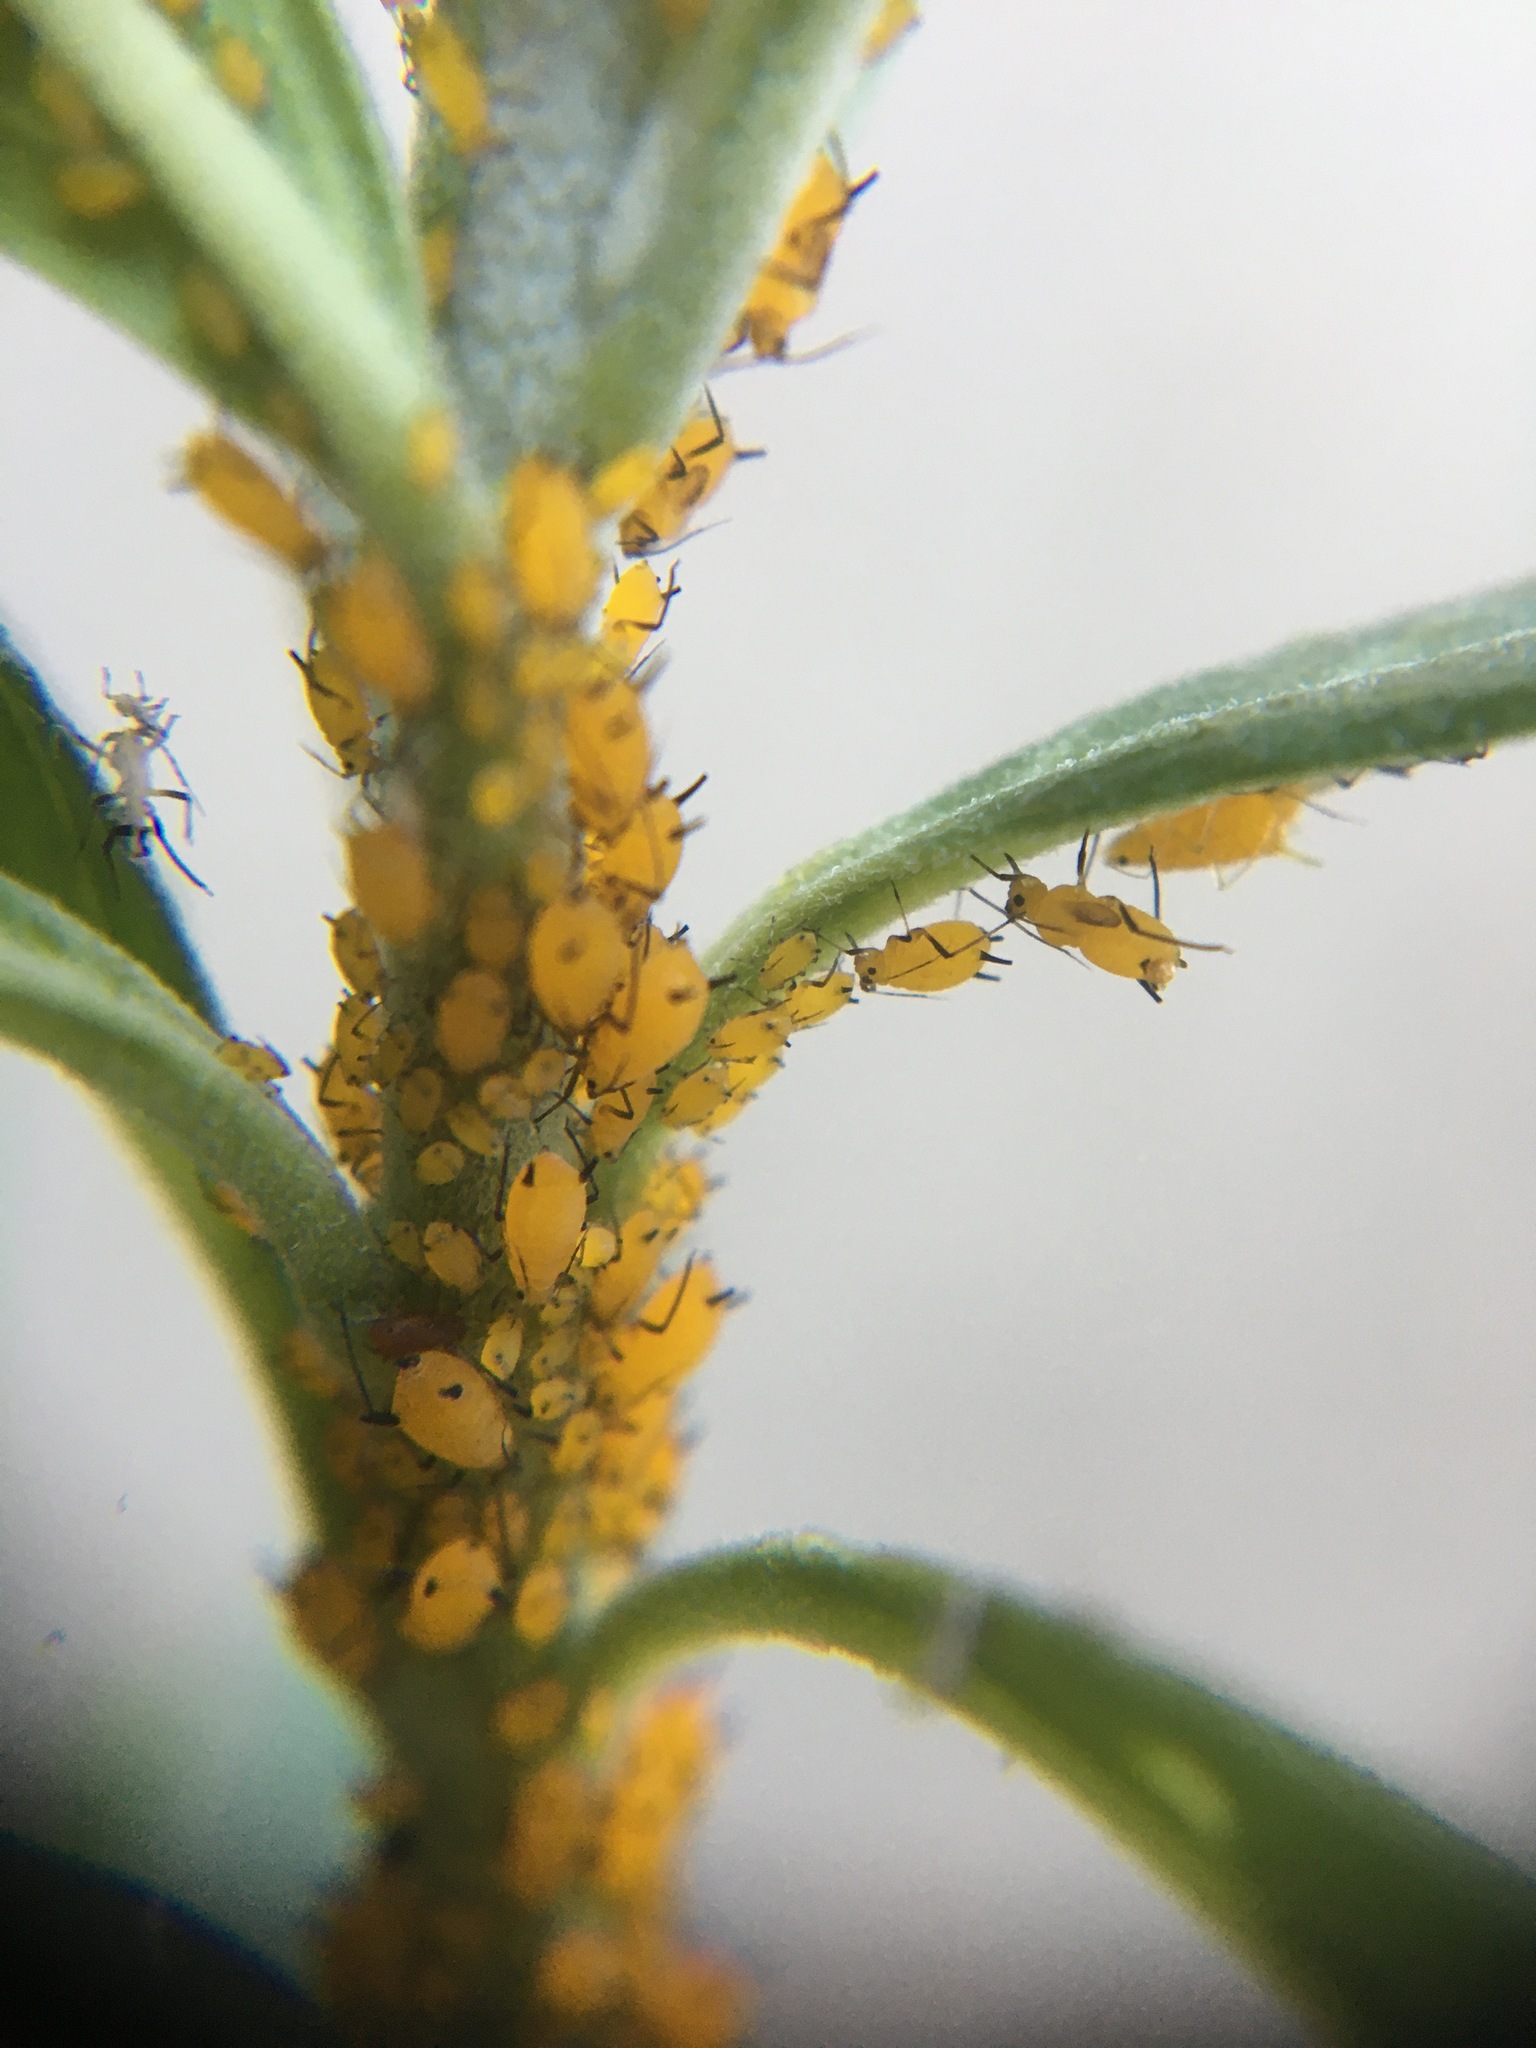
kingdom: Animalia
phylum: Arthropoda
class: Insecta
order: Hemiptera
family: Aphididae
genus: Aphis
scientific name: Aphis nerii
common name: Oleander aphid
